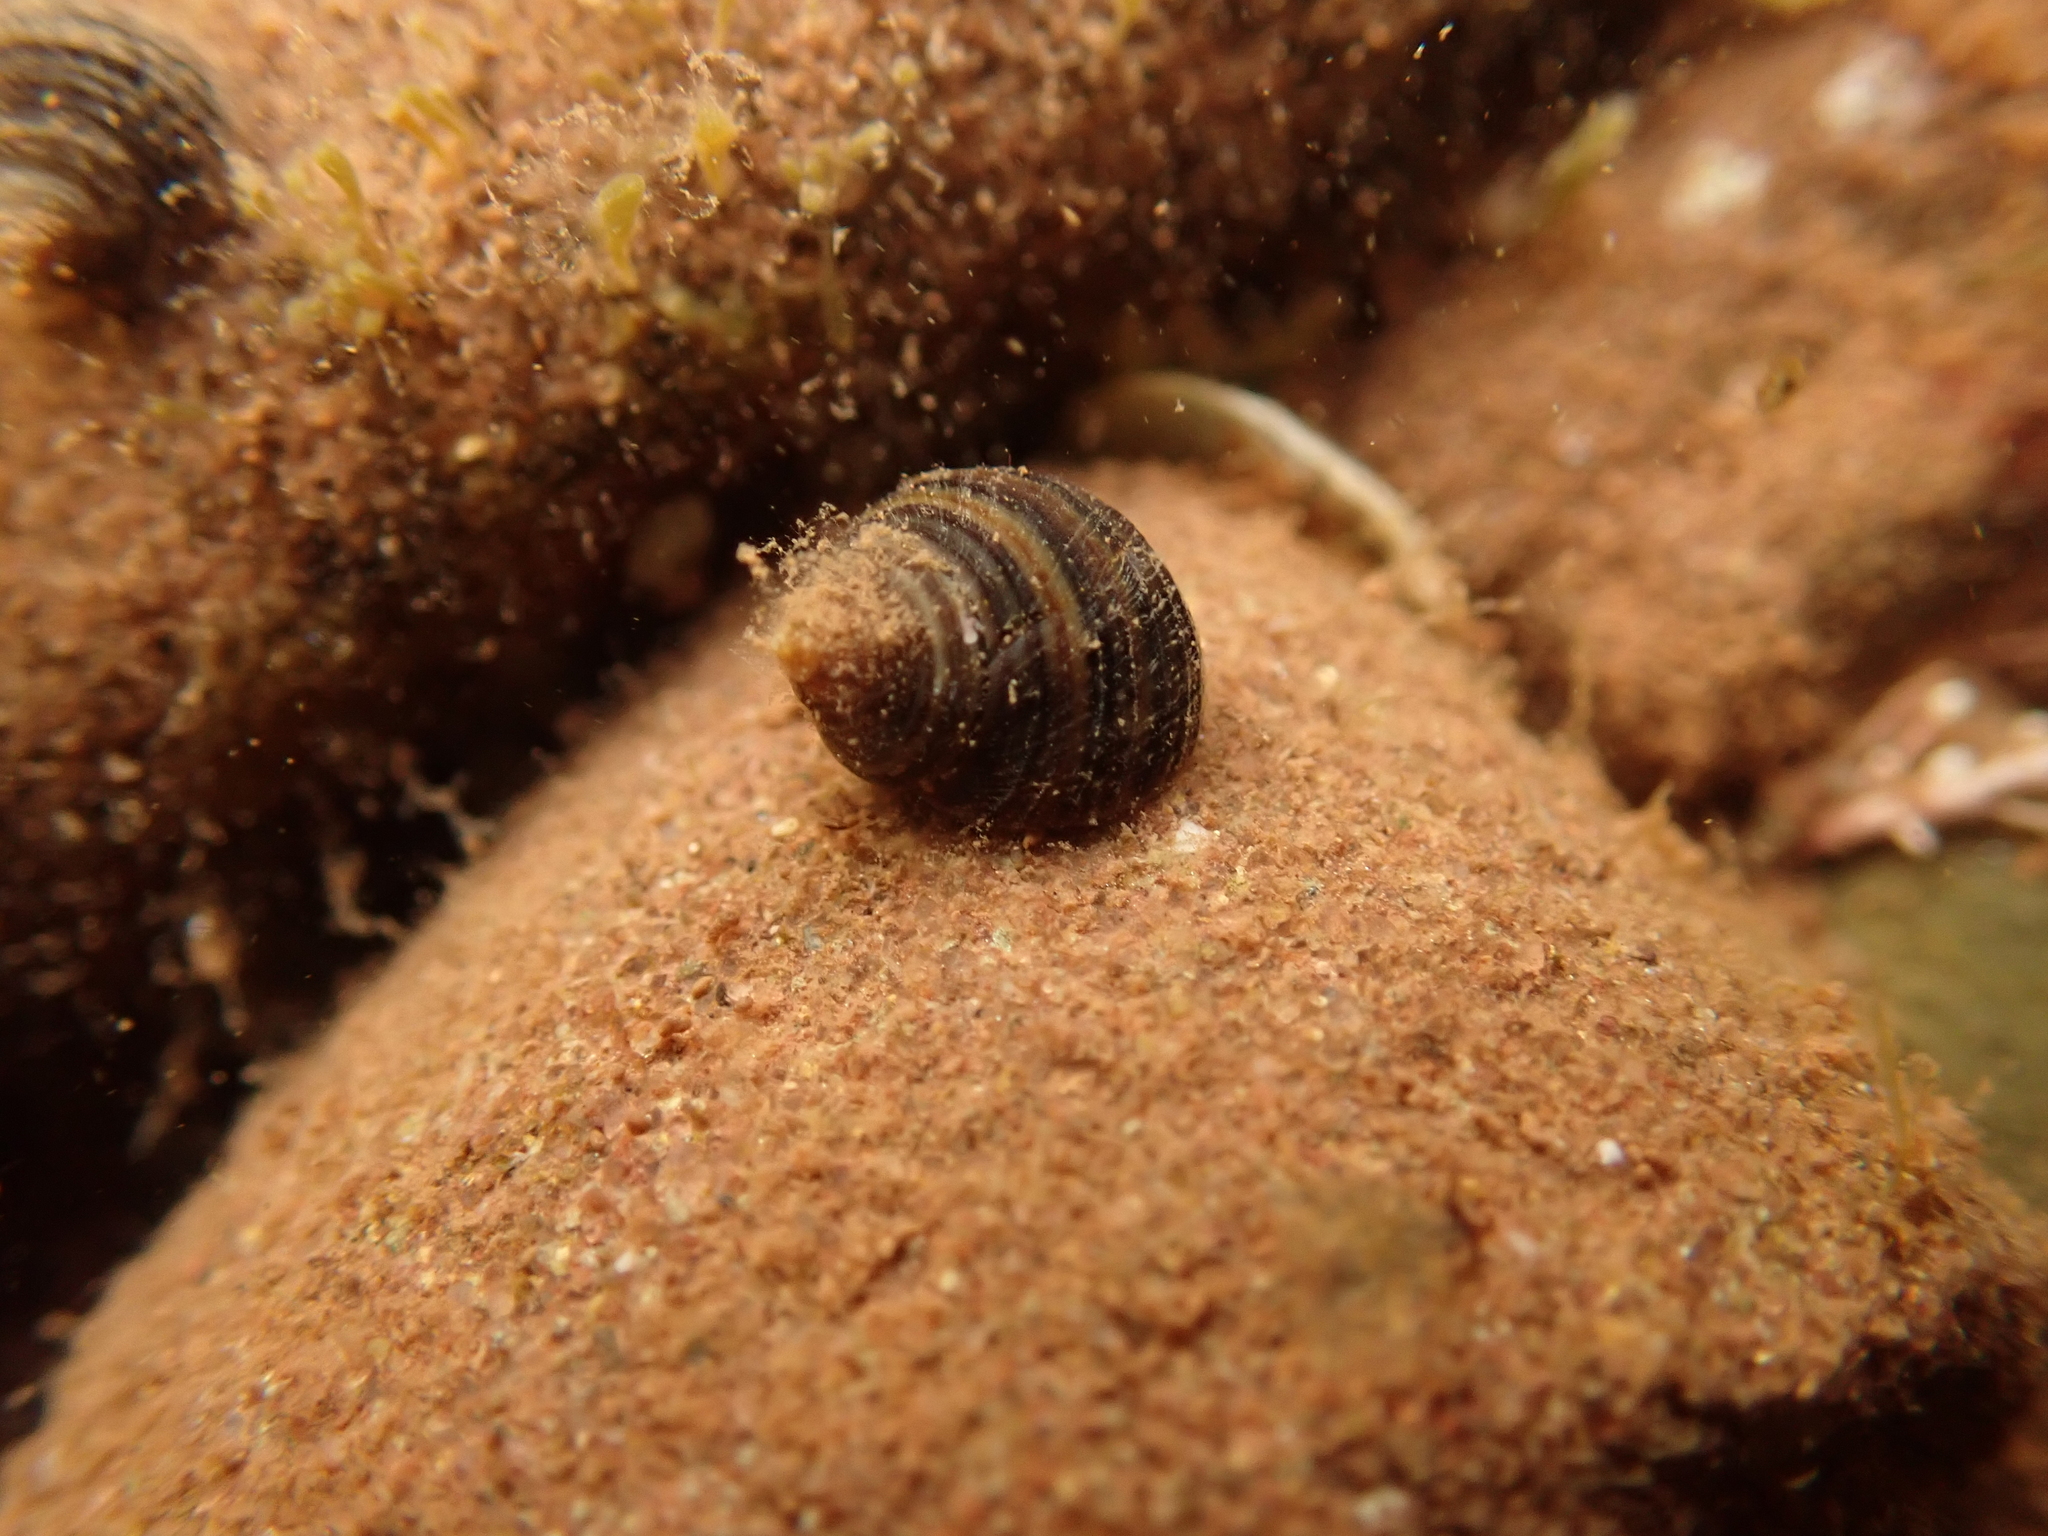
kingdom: Animalia
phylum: Mollusca
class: Gastropoda
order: Littorinimorpha
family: Littorinidae
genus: Littorina
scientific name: Littorina littorea
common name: Common periwinkle
